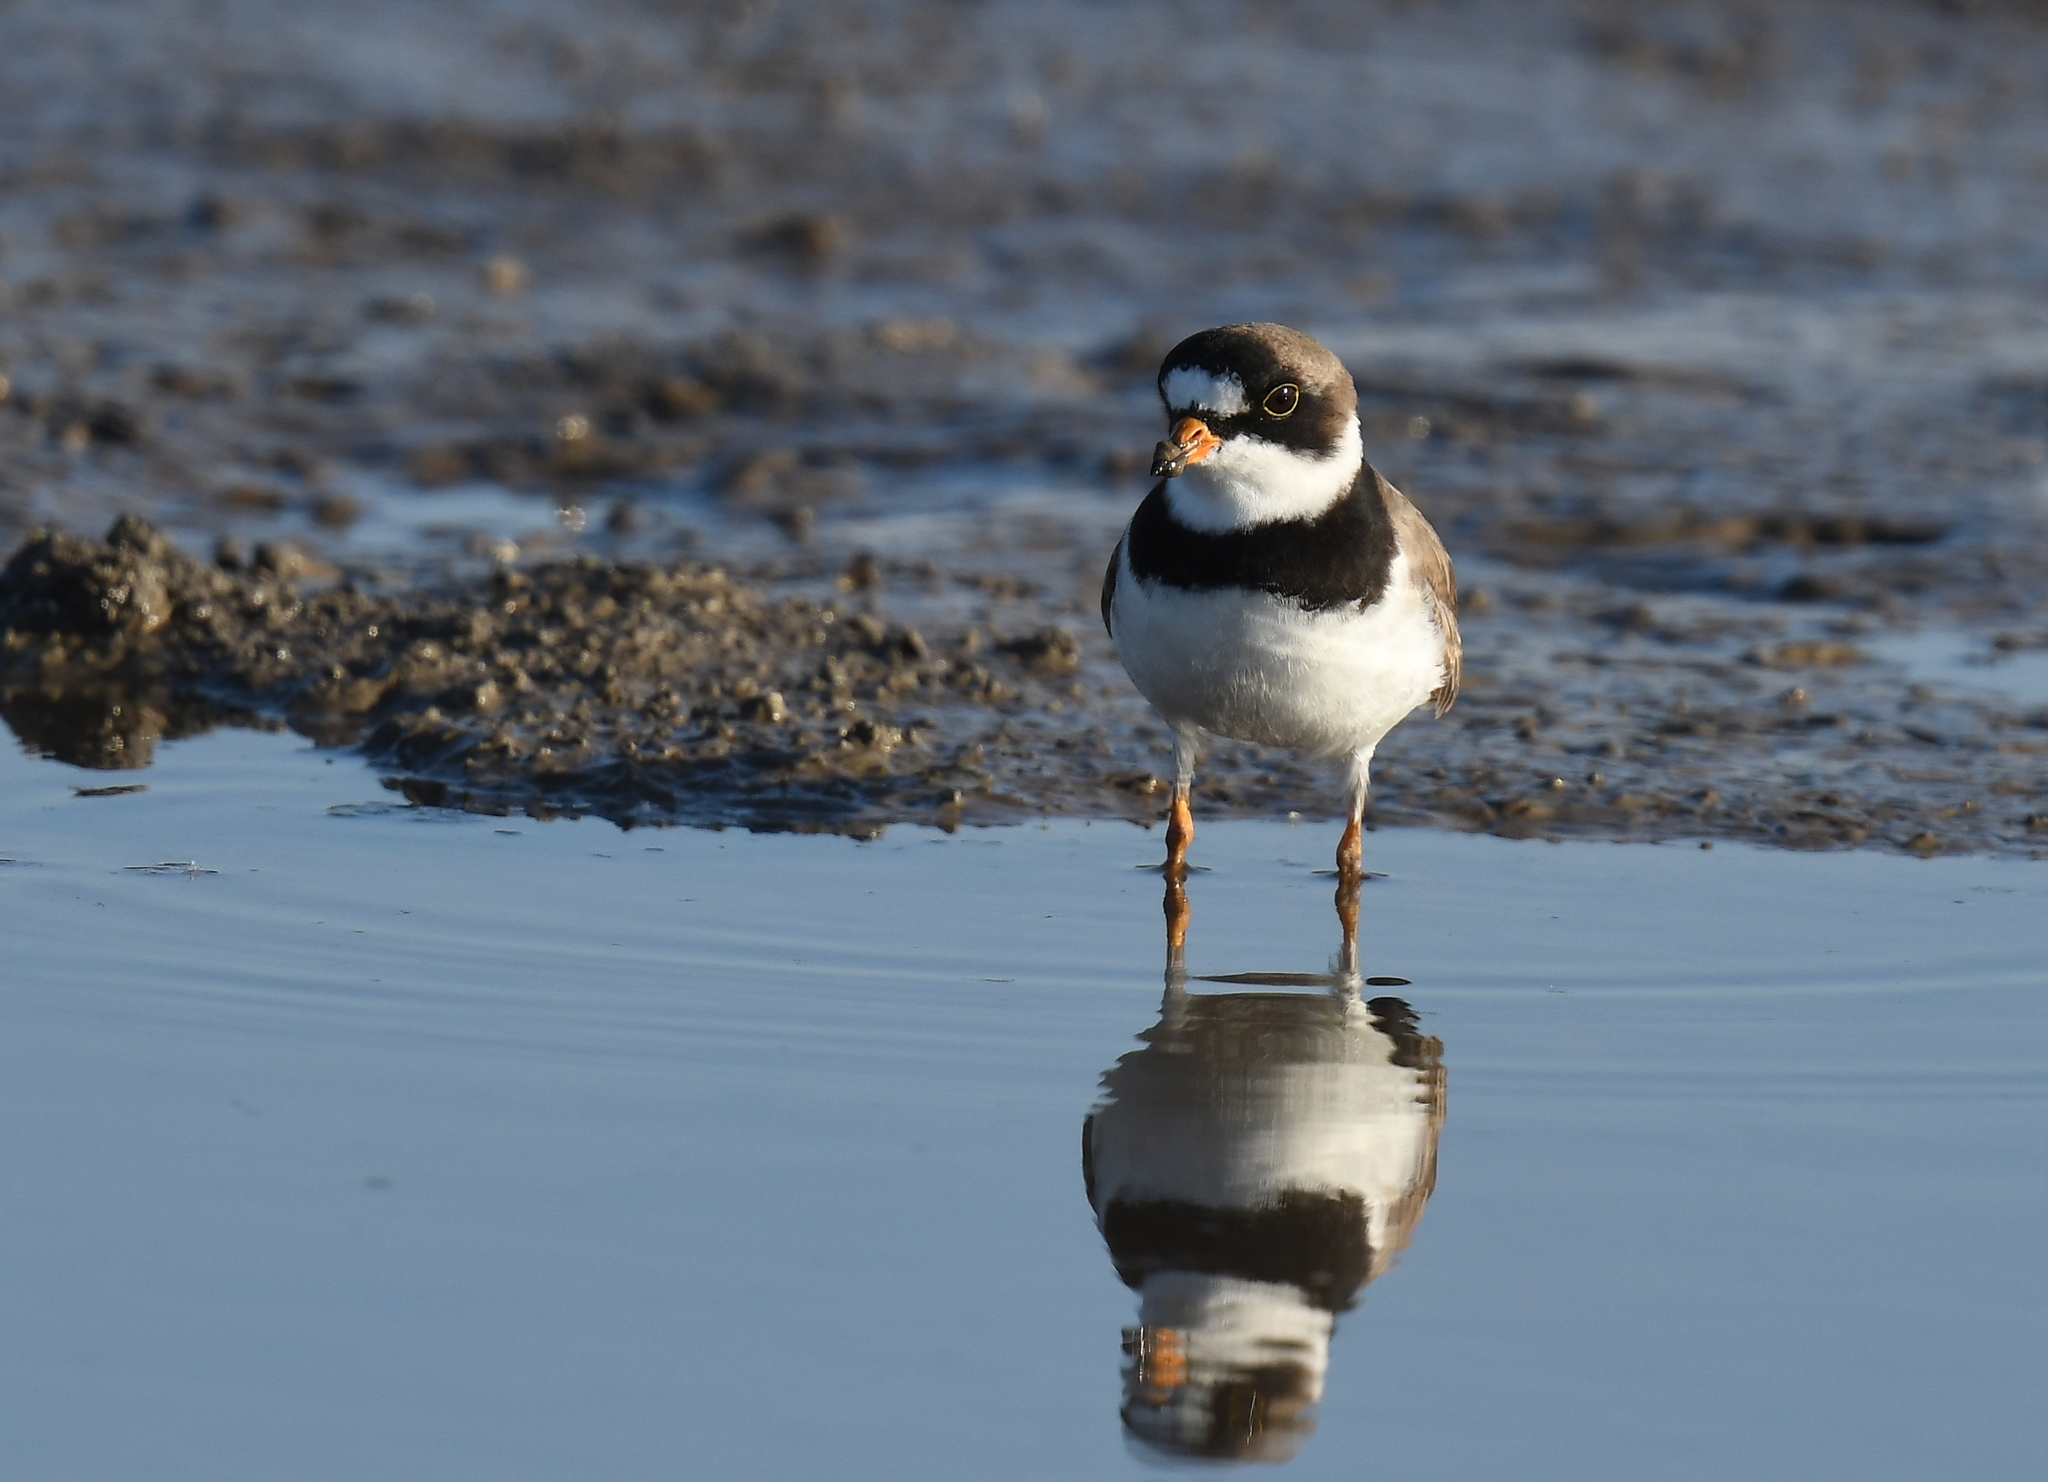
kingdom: Animalia
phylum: Chordata
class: Aves
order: Charadriiformes
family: Charadriidae
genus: Charadrius
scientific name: Charadrius semipalmatus
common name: Semipalmated plover
